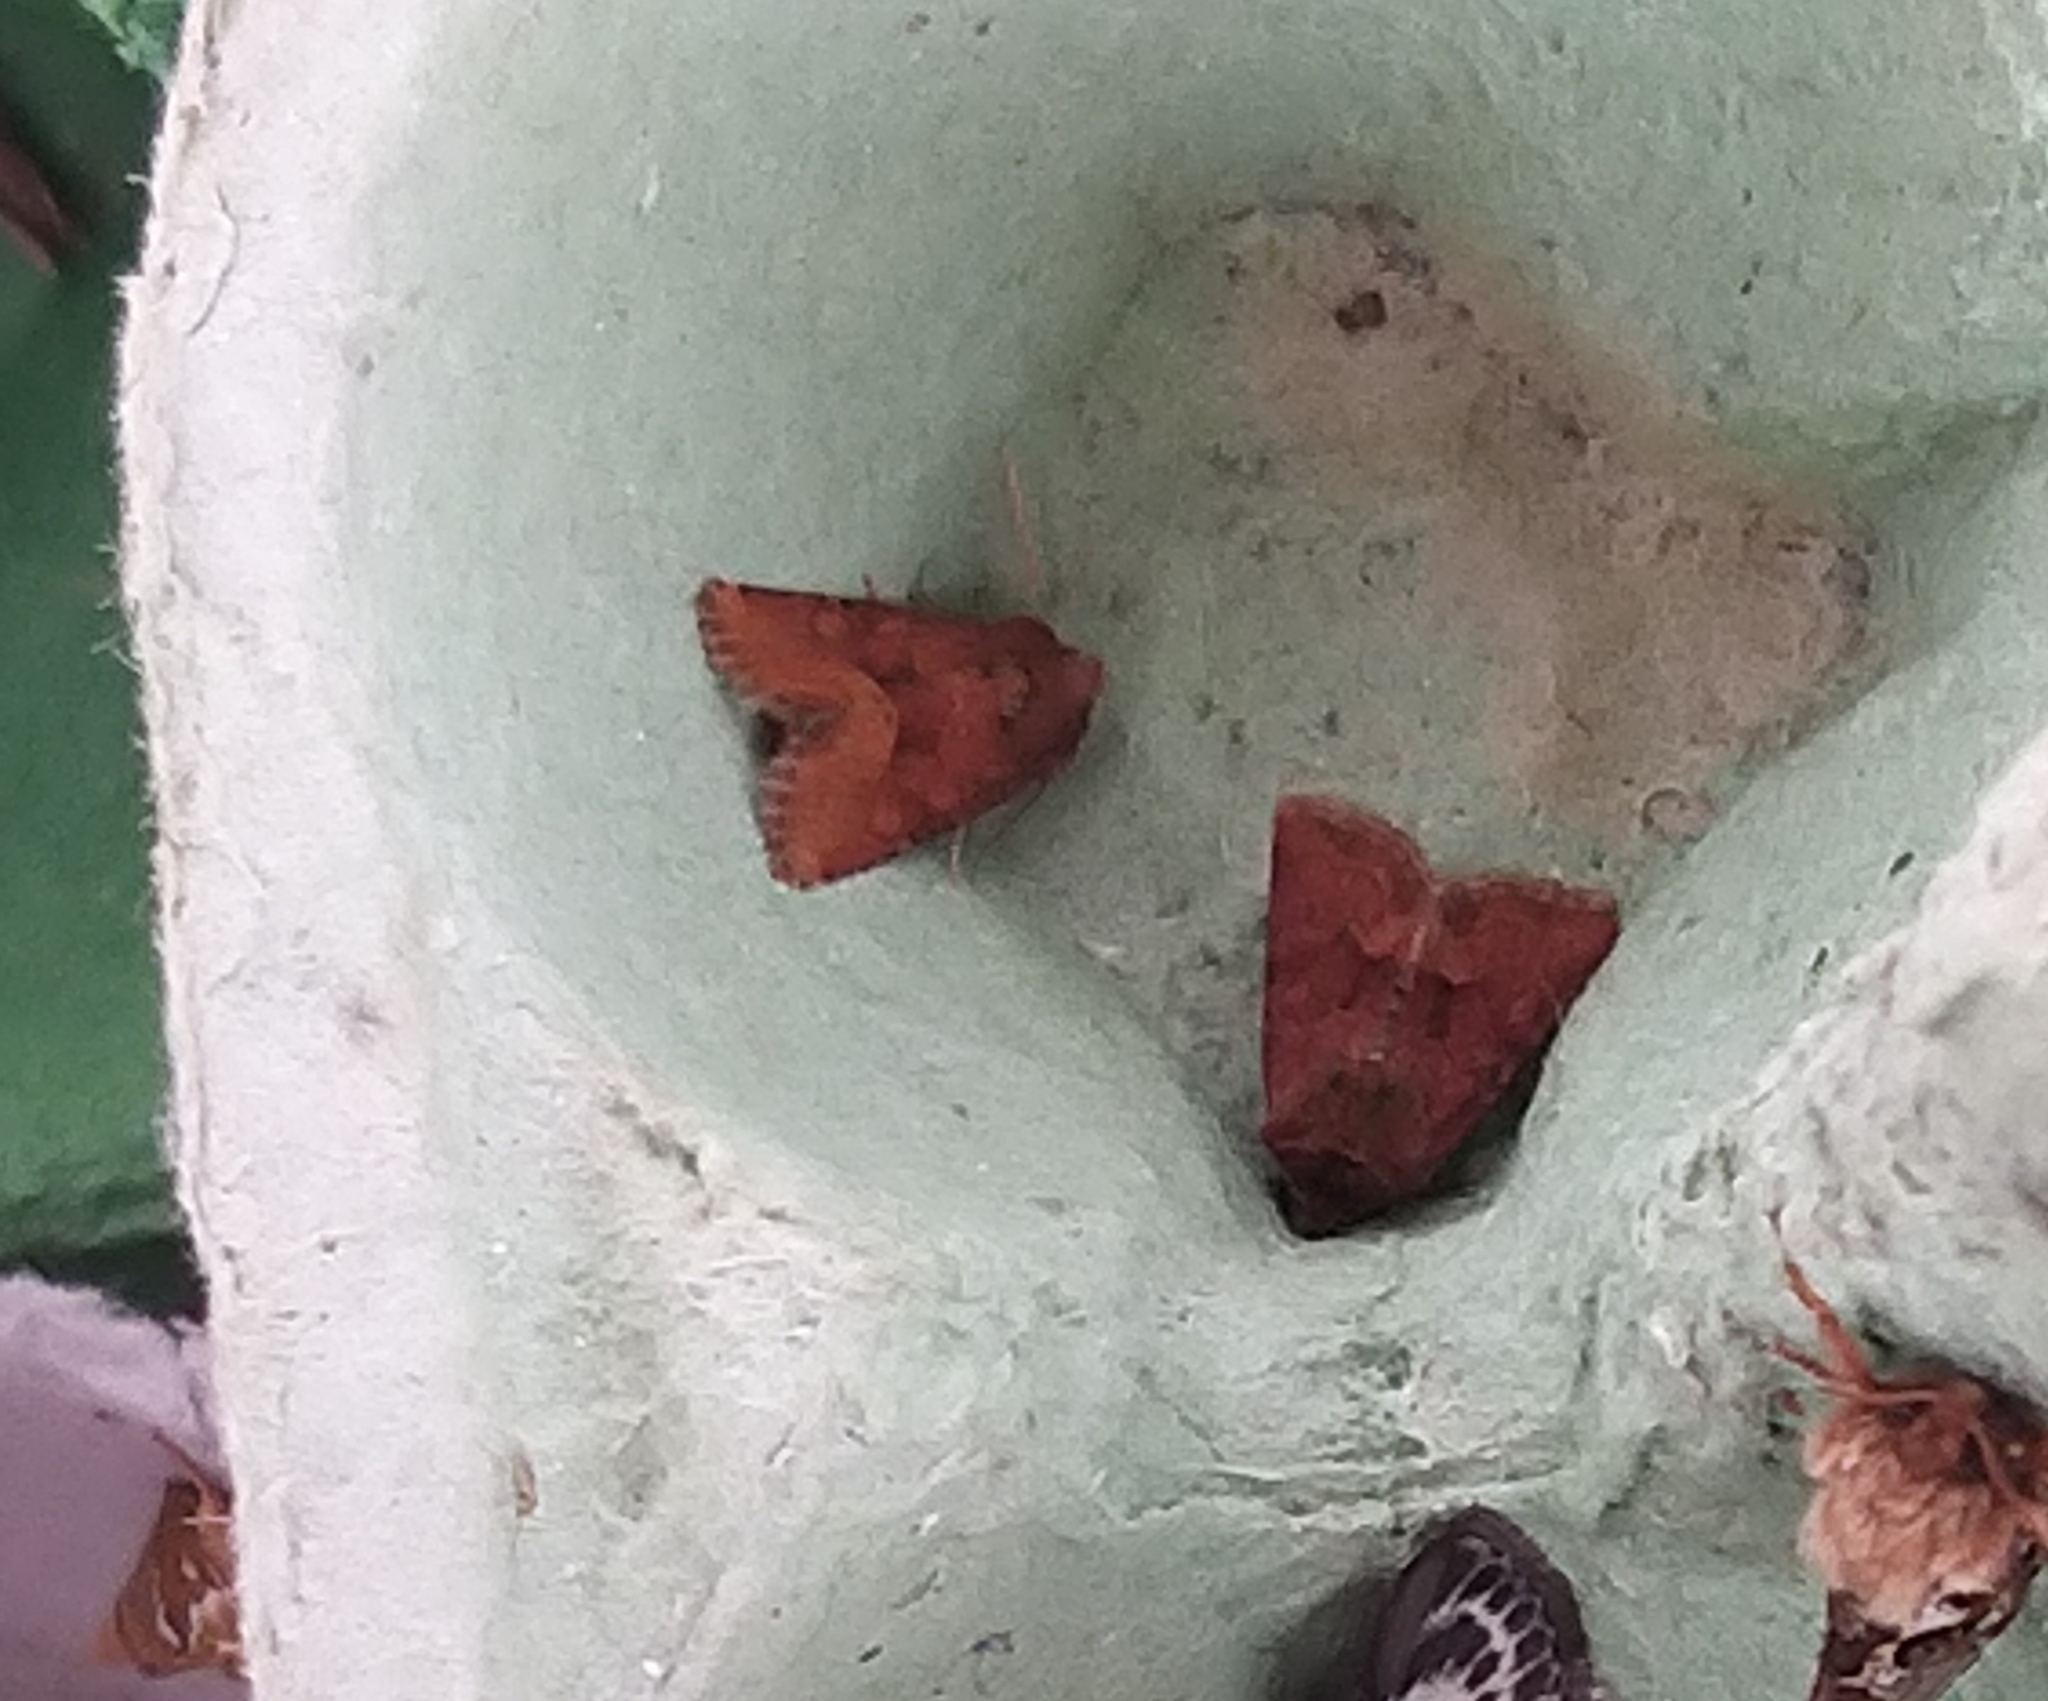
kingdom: Animalia
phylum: Arthropoda
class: Insecta
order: Lepidoptera
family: Noctuidae
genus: Oligia
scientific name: Oligia fasciuncula
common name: Middle-barred minor
